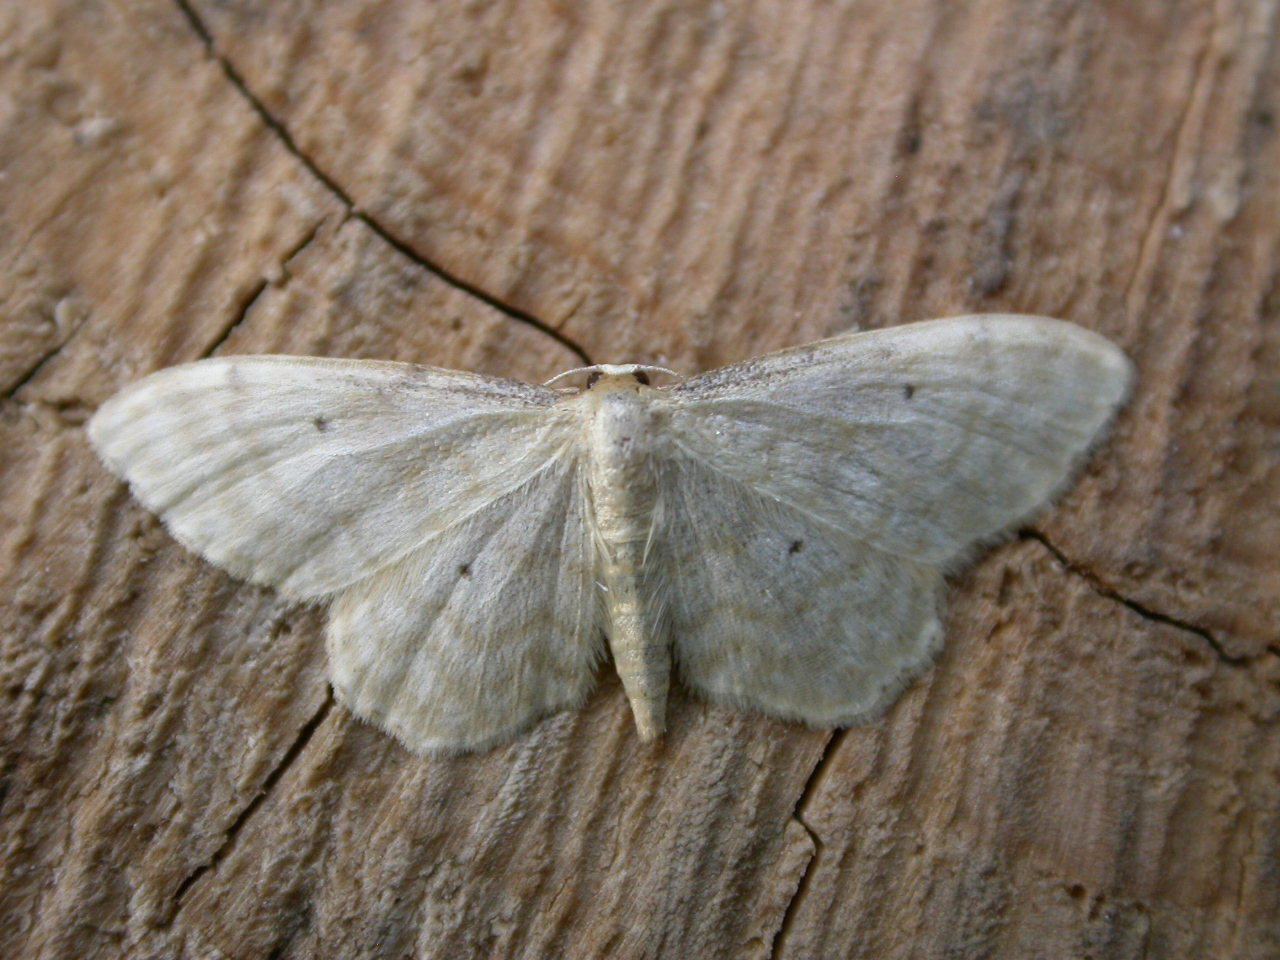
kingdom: Animalia
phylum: Arthropoda
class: Insecta
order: Lepidoptera
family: Geometridae
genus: Idaea
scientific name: Idaea fuscovenosa
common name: Dwarf cream wave
